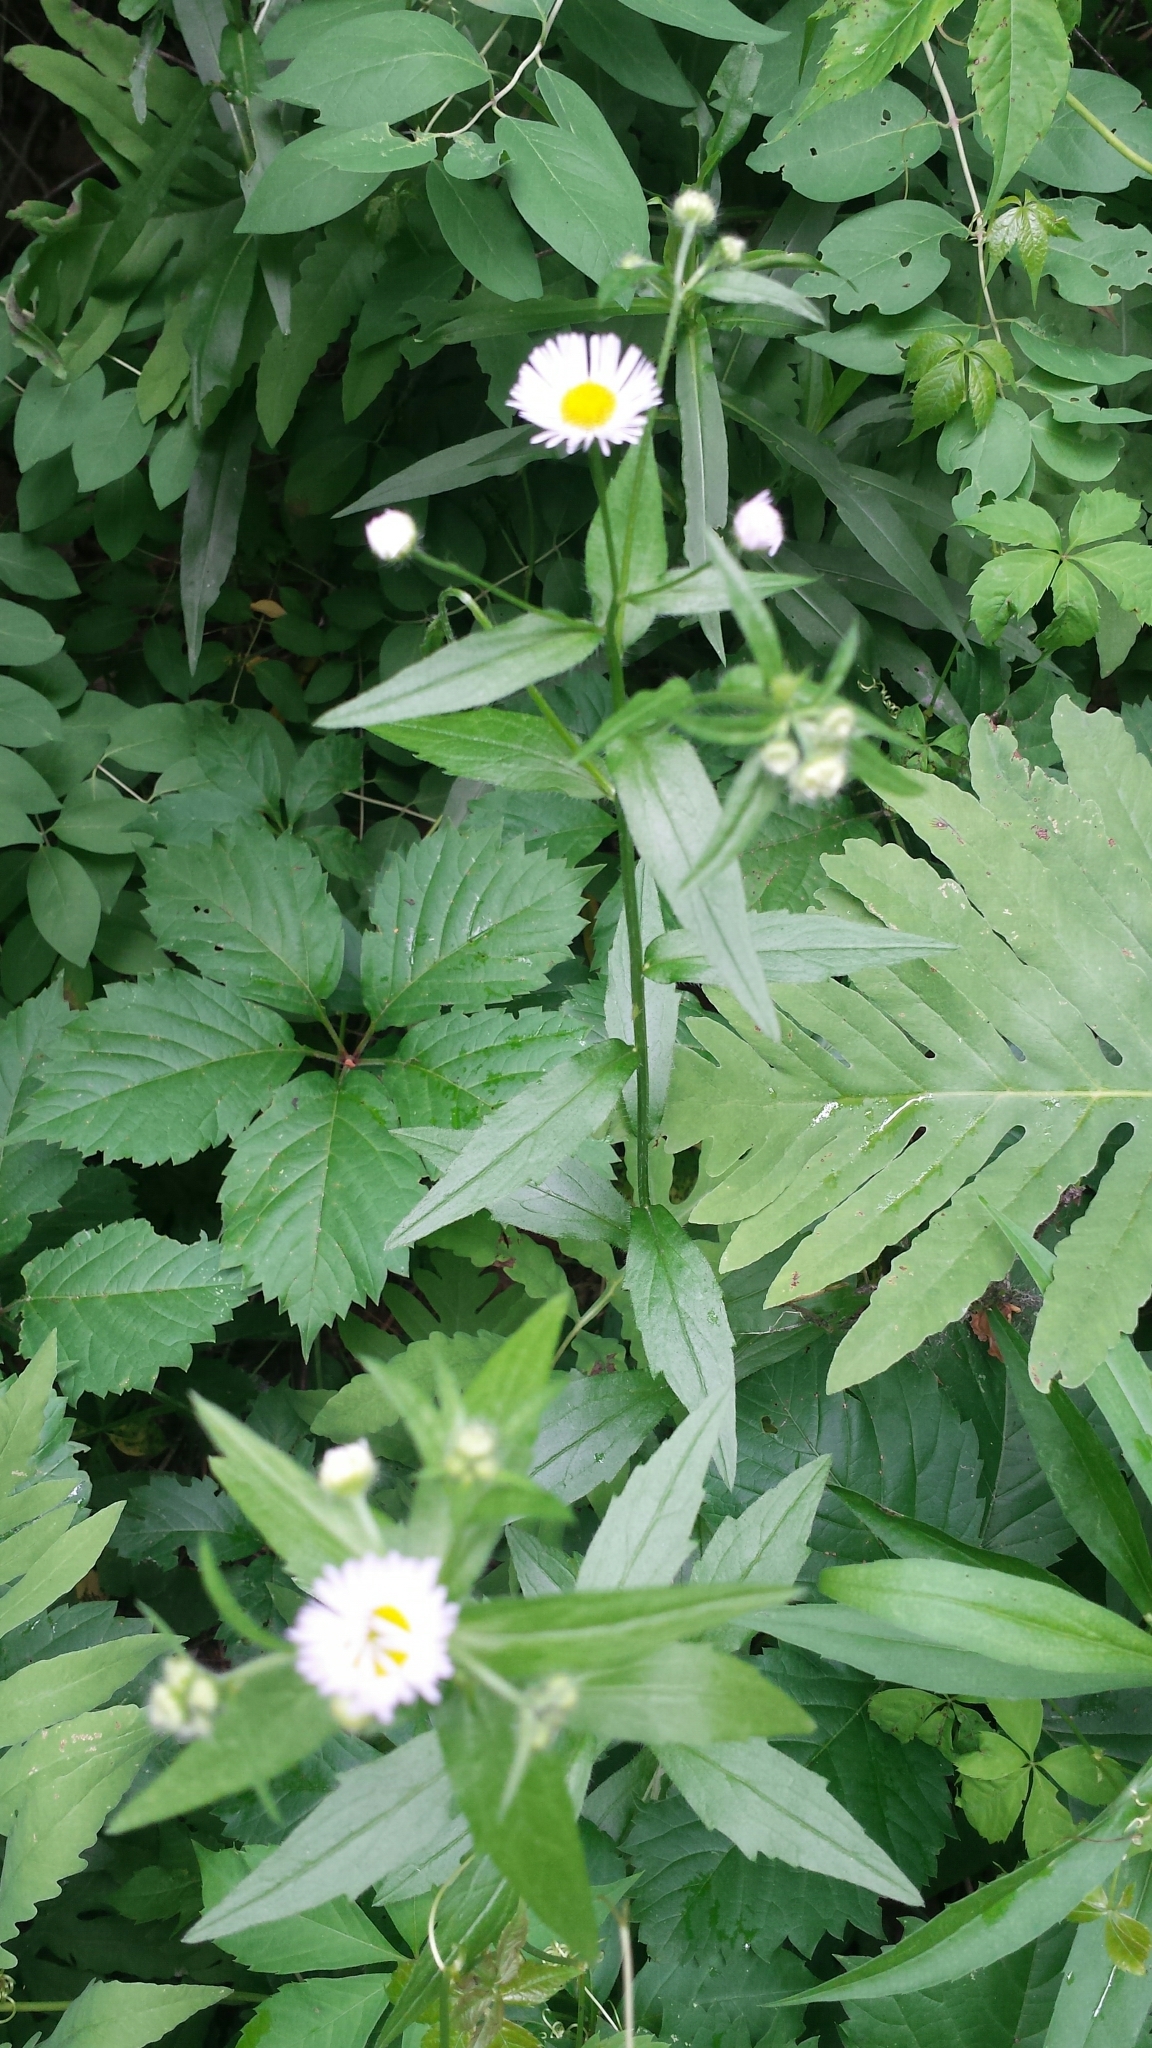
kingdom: Plantae
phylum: Tracheophyta
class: Magnoliopsida
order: Asterales
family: Asteraceae
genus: Erigeron
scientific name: Erigeron annuus
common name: Tall fleabane
